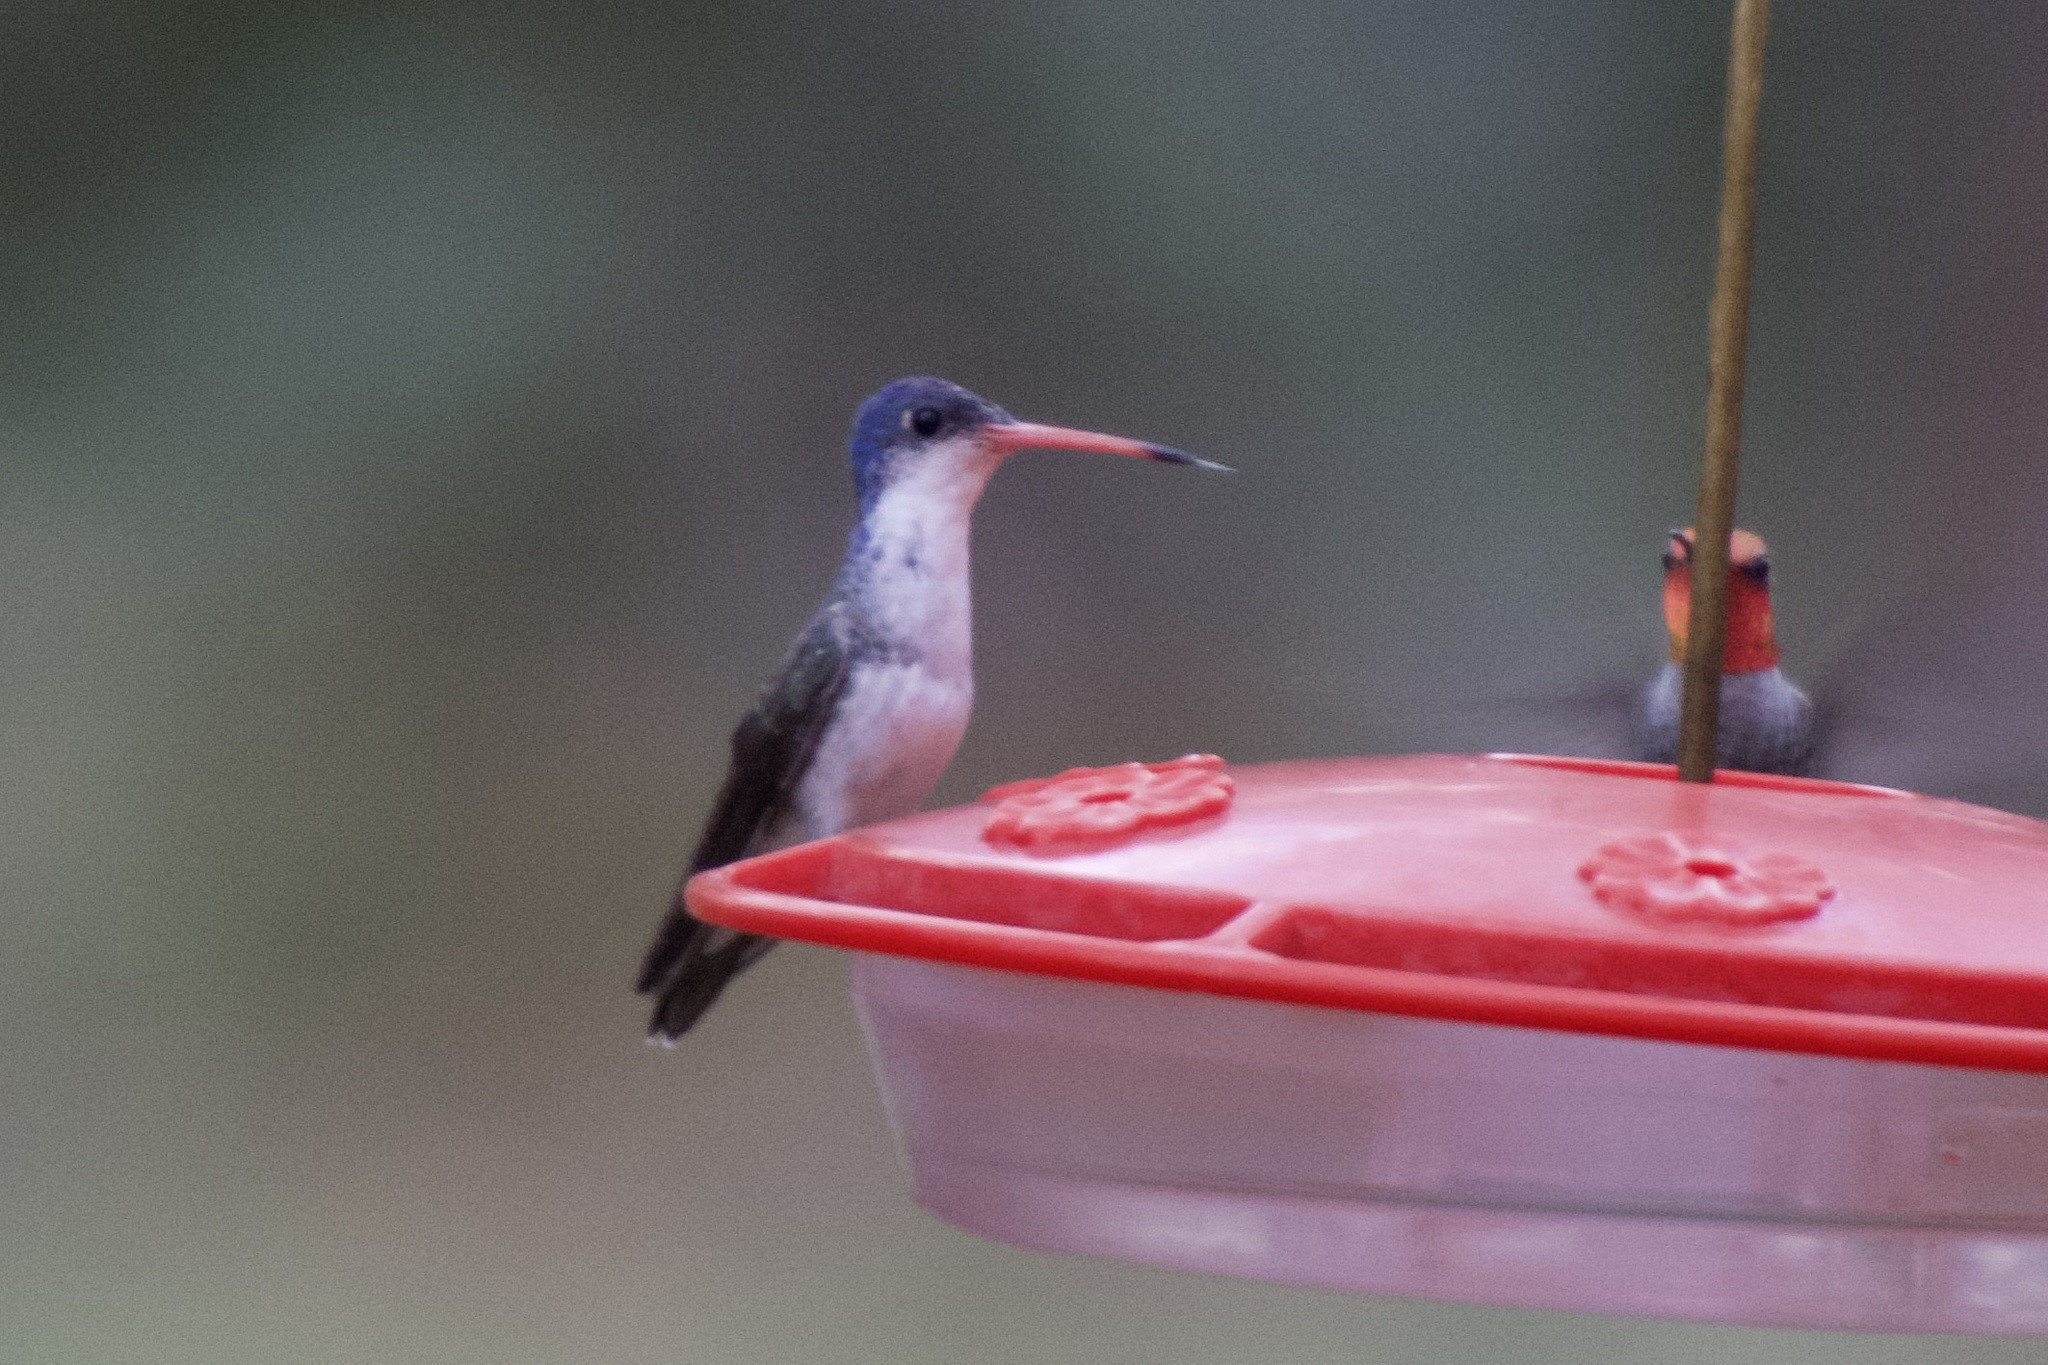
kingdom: Animalia
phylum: Chordata
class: Aves
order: Apodiformes
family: Trochilidae
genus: Leucolia
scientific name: Leucolia violiceps
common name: Violet-crowned hummingbird
